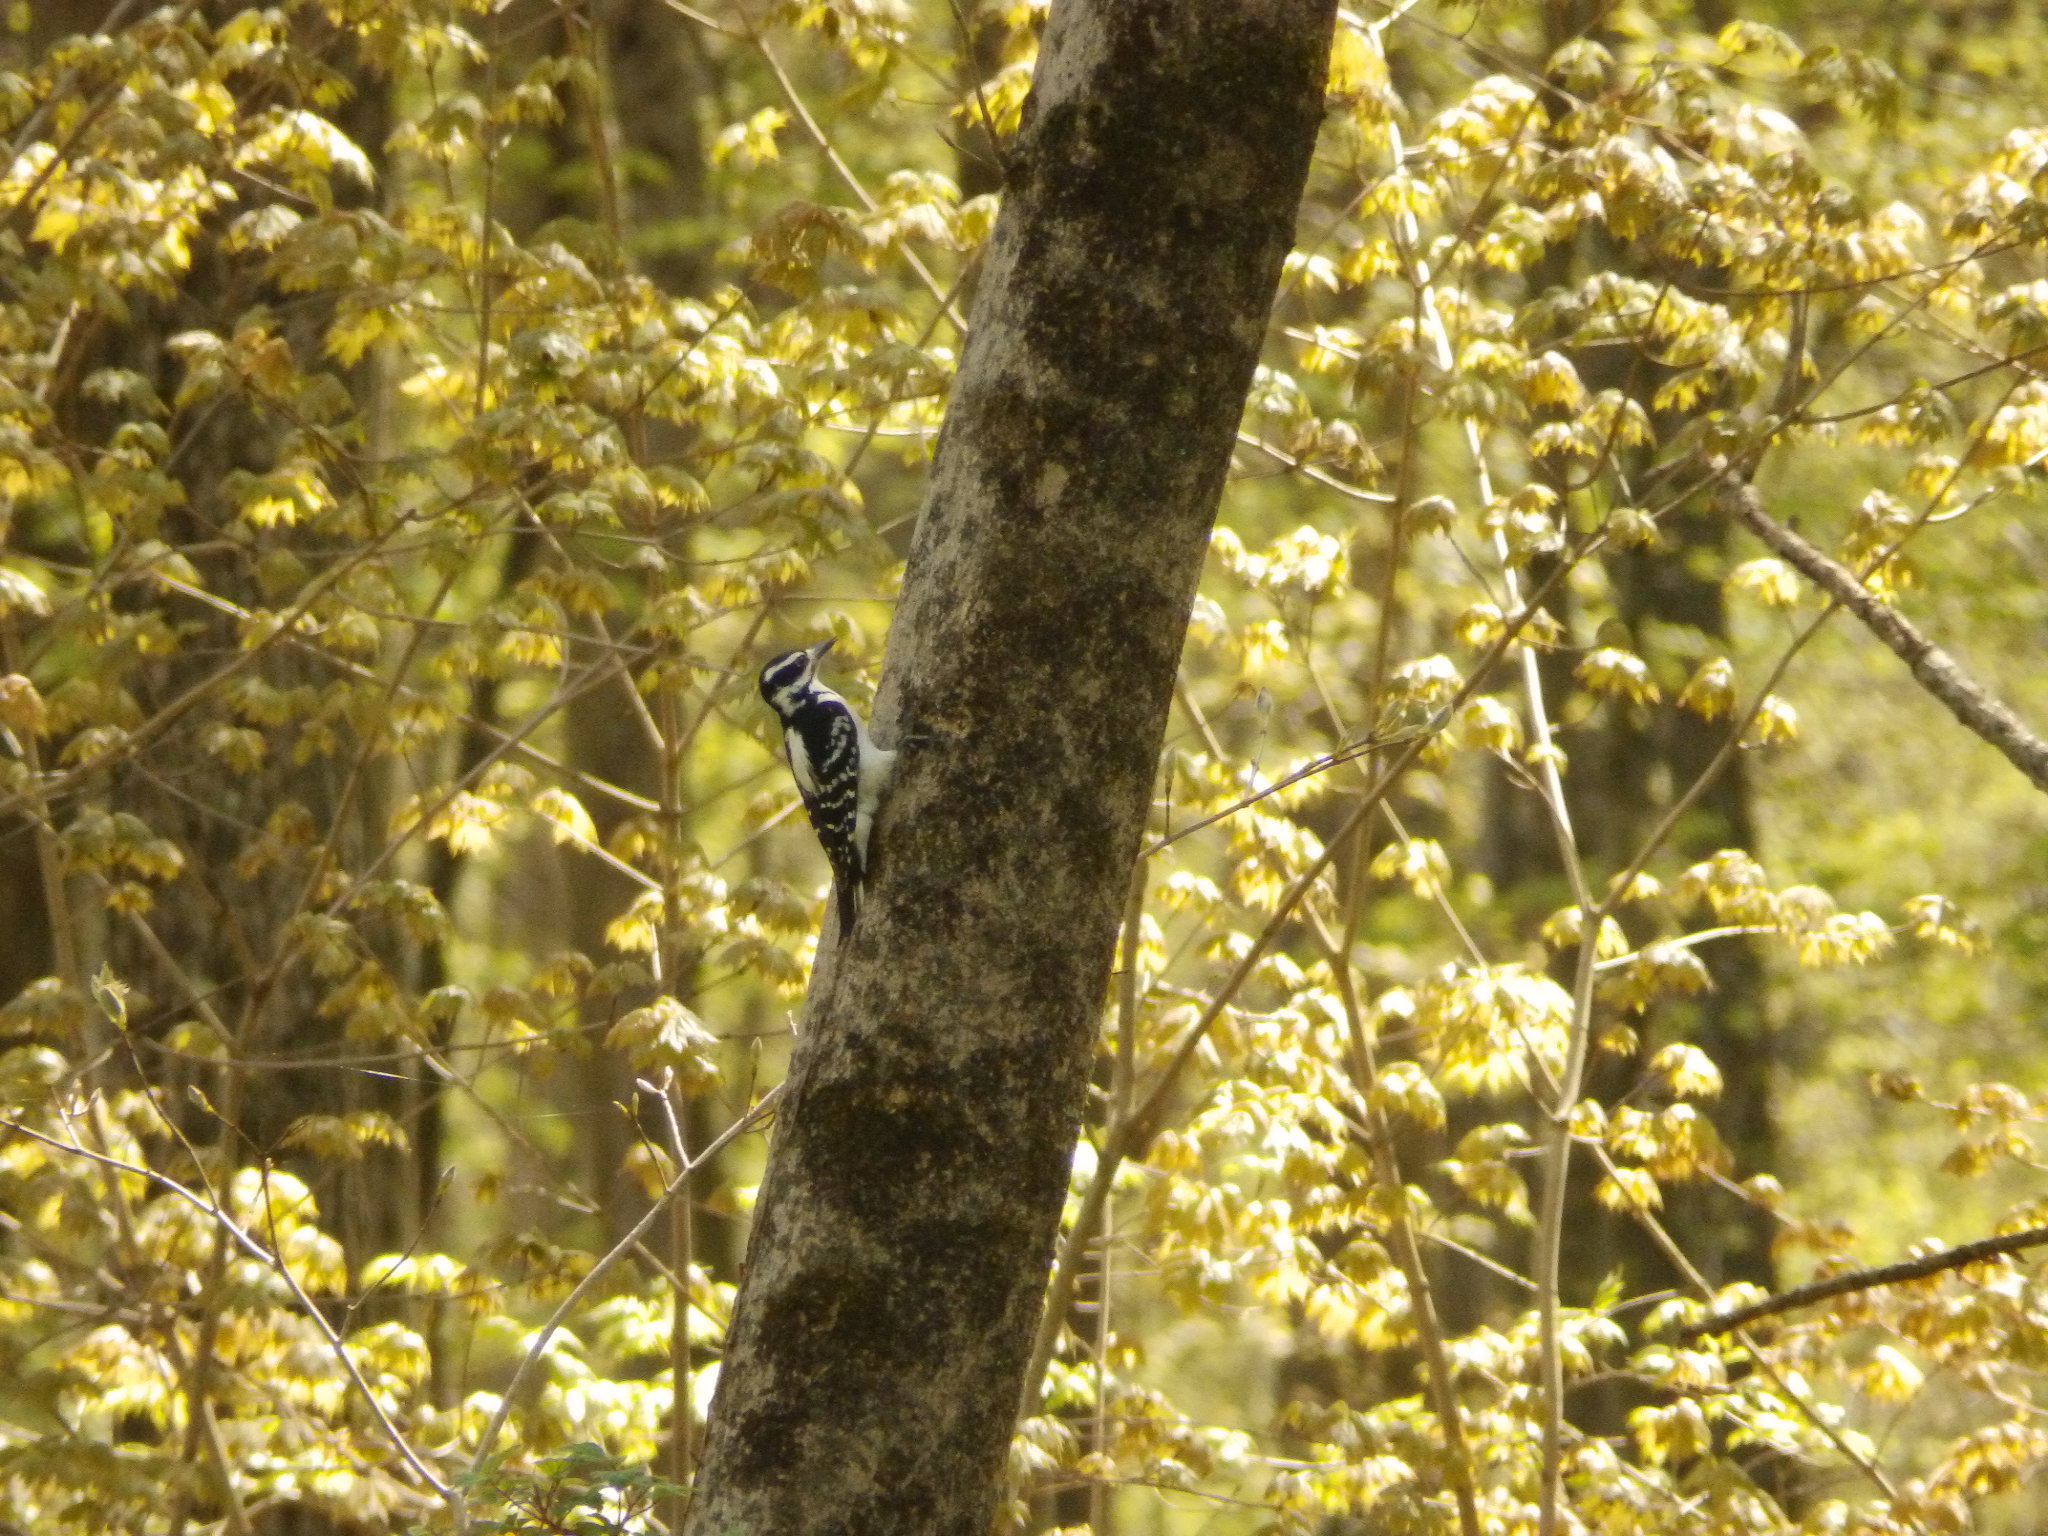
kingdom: Animalia
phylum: Chordata
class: Aves
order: Piciformes
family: Picidae
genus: Leuconotopicus
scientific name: Leuconotopicus villosus
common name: Hairy woodpecker
